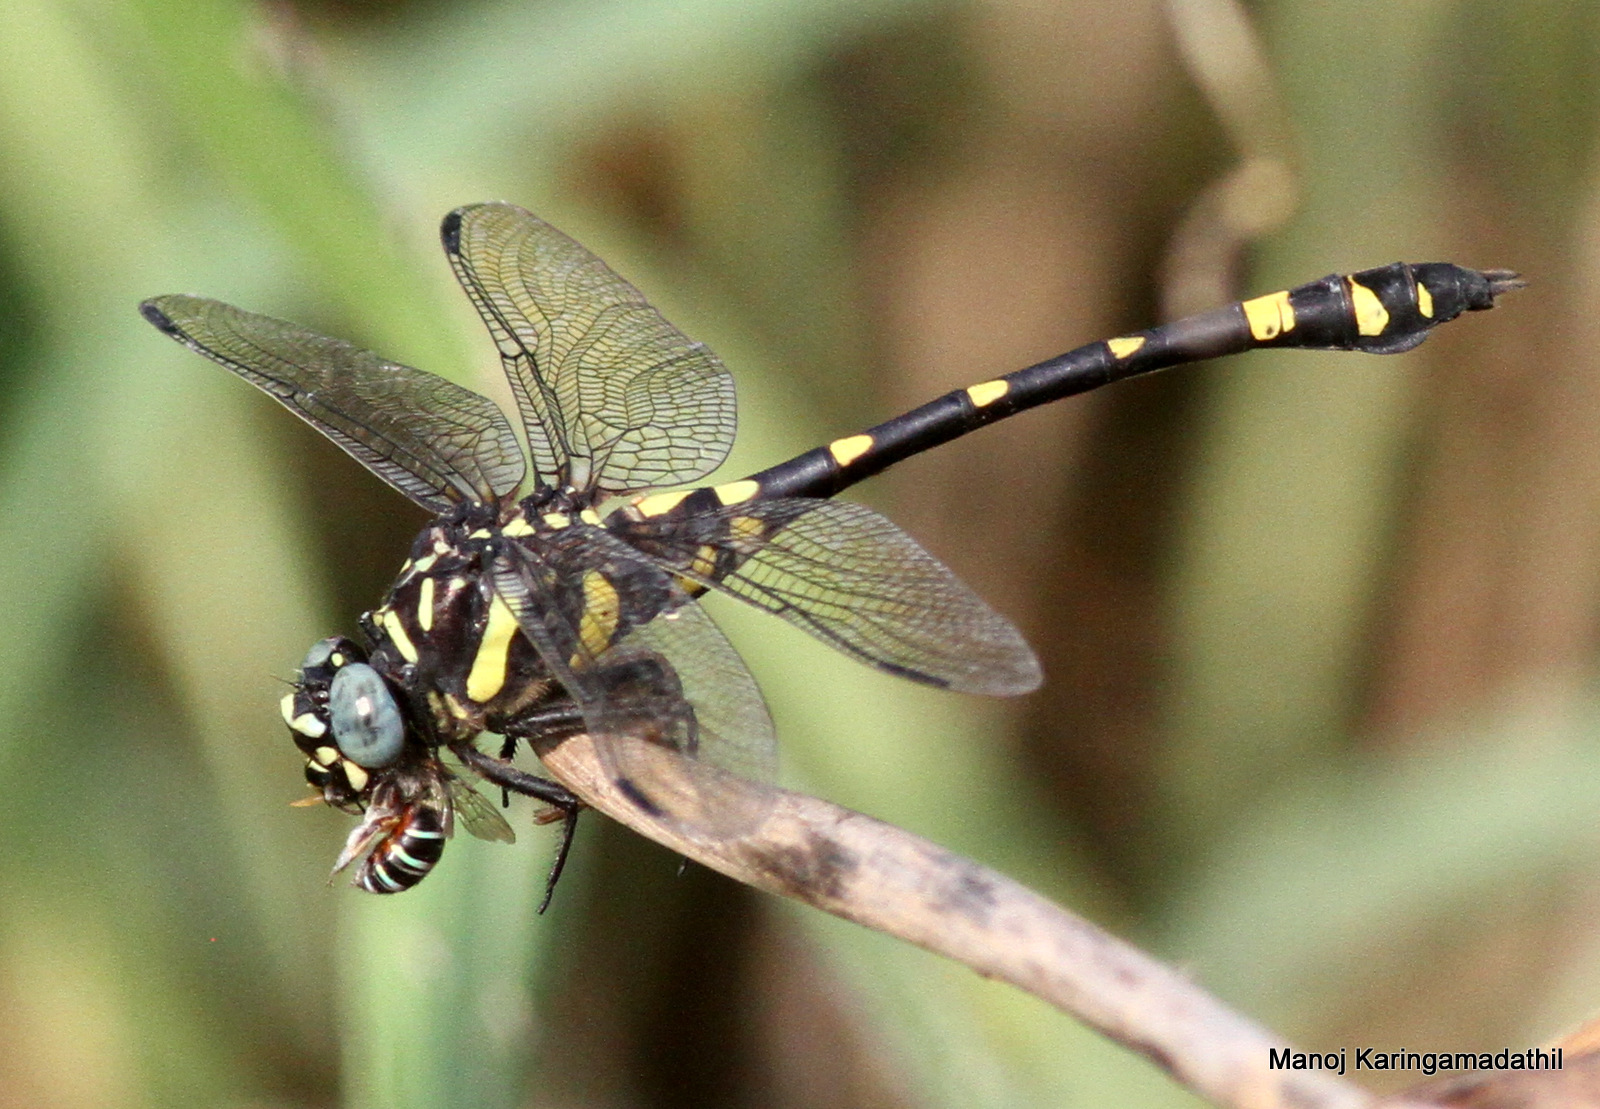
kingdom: Animalia
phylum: Arthropoda
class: Insecta
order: Odonata
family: Gomphidae
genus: Ictinogomphus
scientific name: Ictinogomphus rapax
